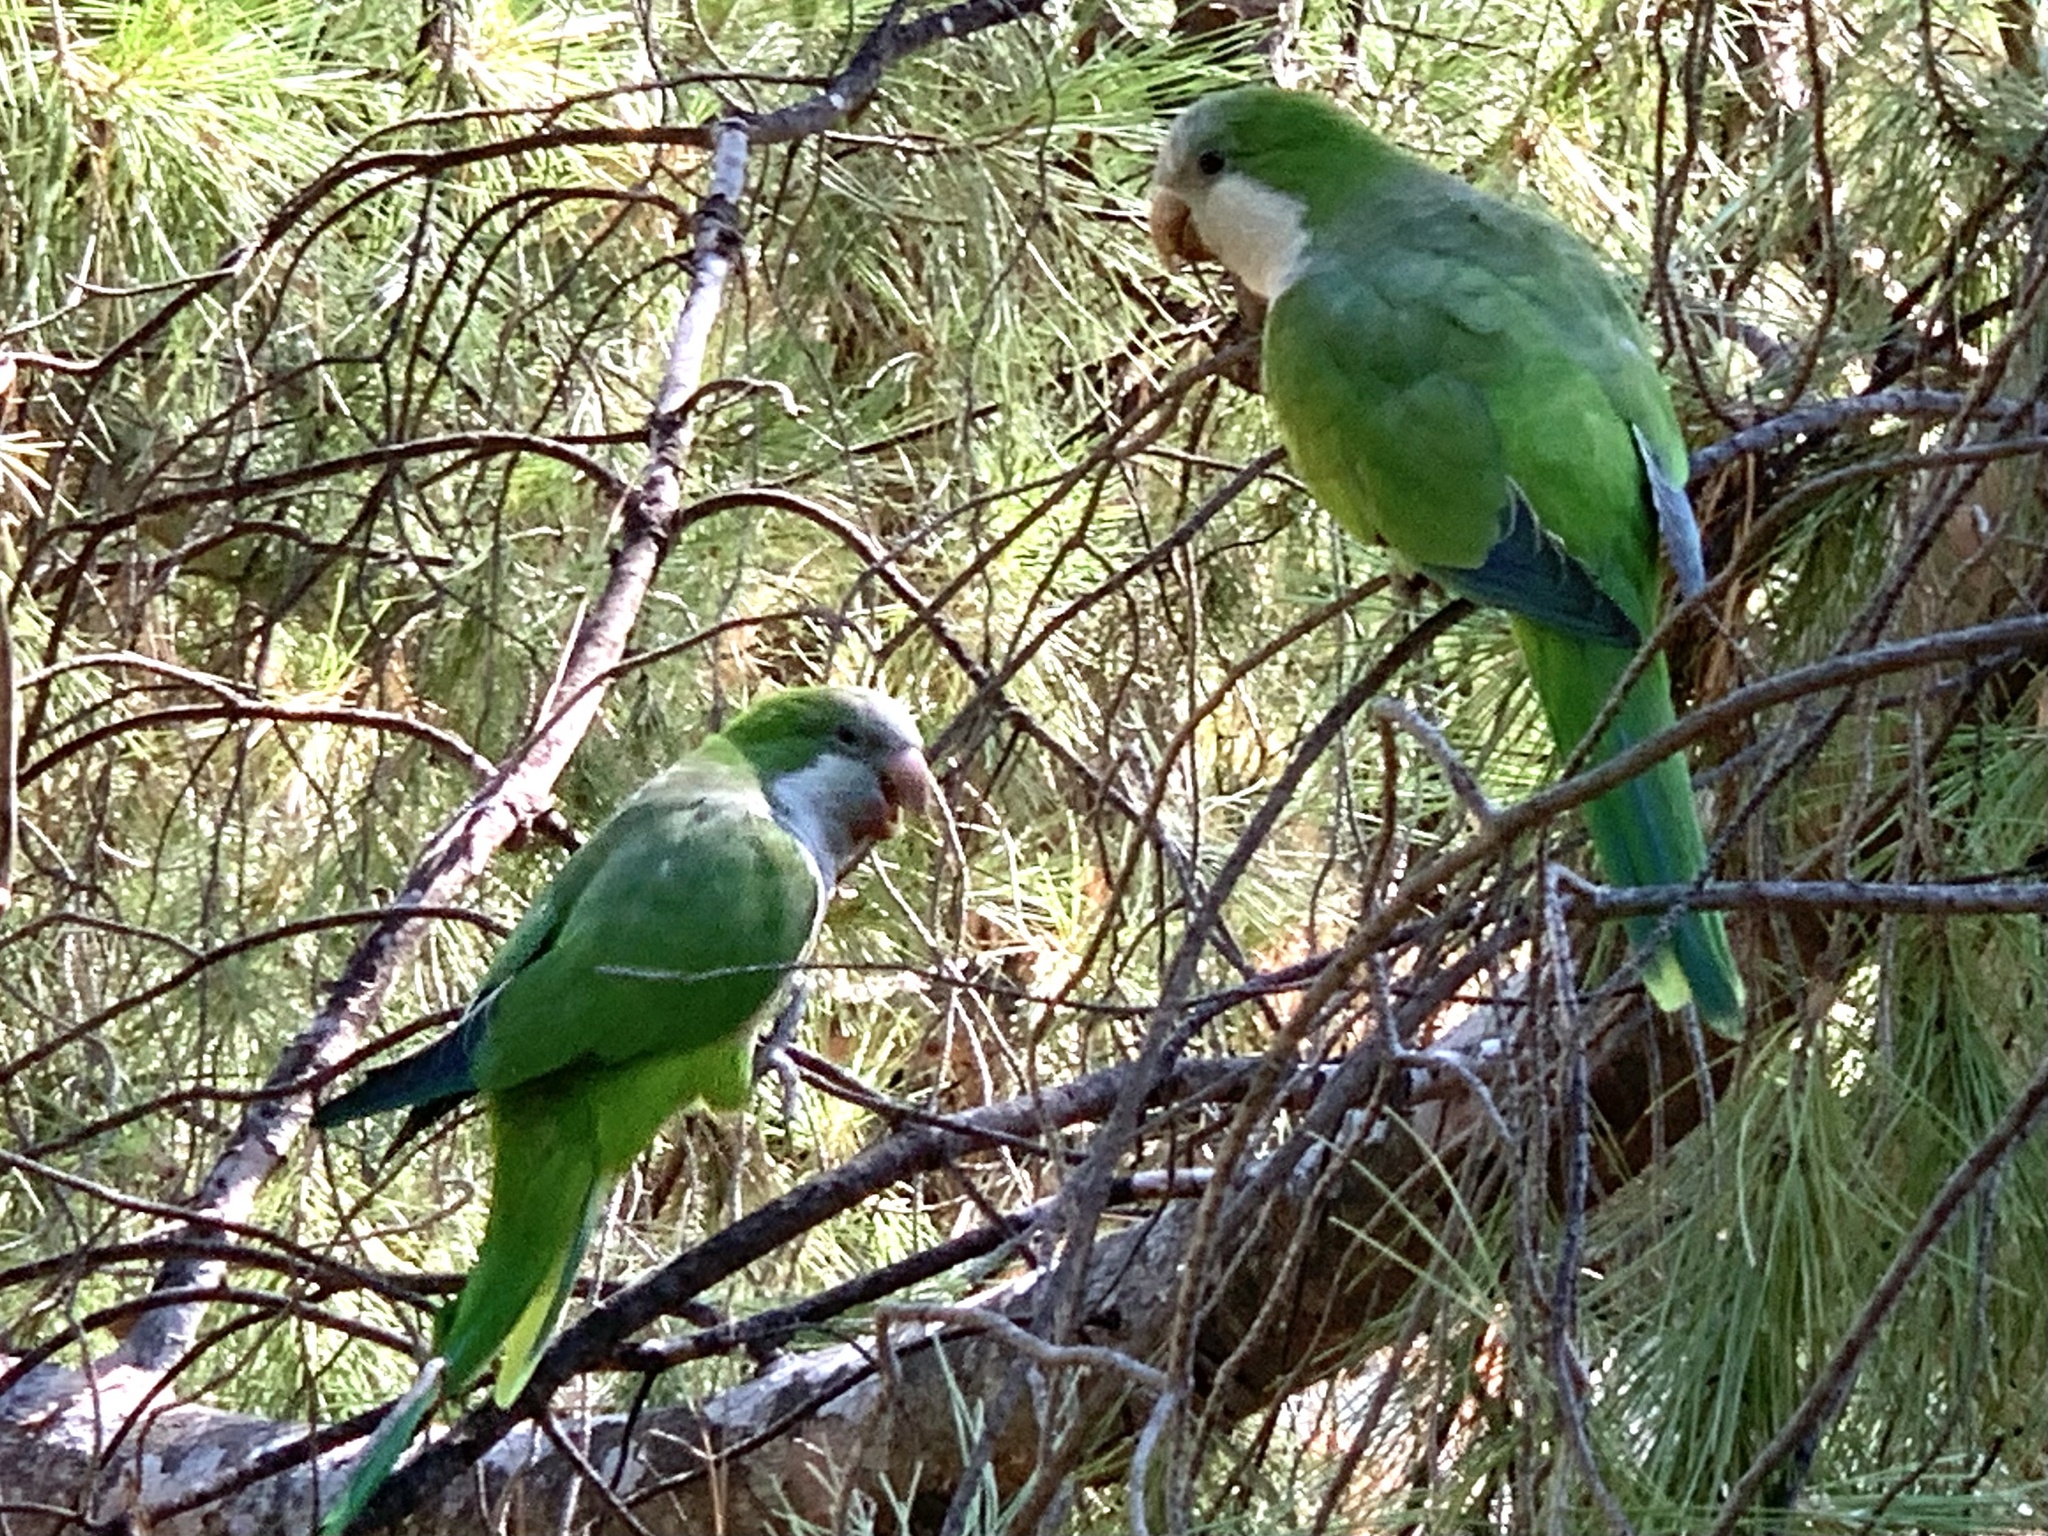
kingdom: Animalia
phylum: Chordata
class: Aves
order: Psittaciformes
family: Psittacidae
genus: Myiopsitta
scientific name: Myiopsitta monachus
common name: Monk parakeet
